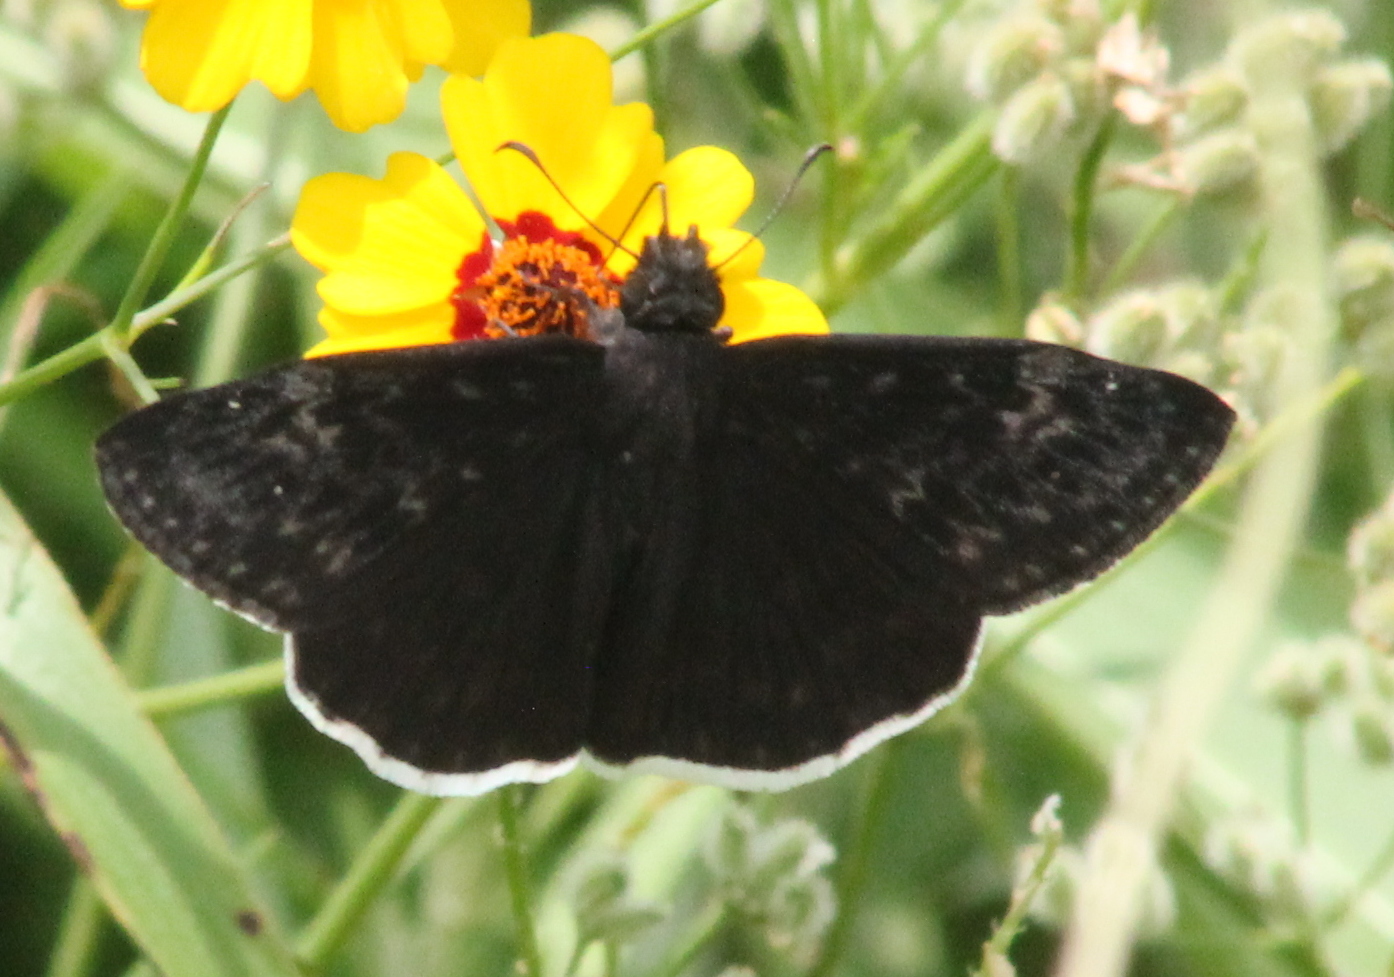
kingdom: Animalia
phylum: Arthropoda
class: Insecta
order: Lepidoptera
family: Hesperiidae
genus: Erynnis
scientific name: Erynnis funeralis
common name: Funereal duskywing
